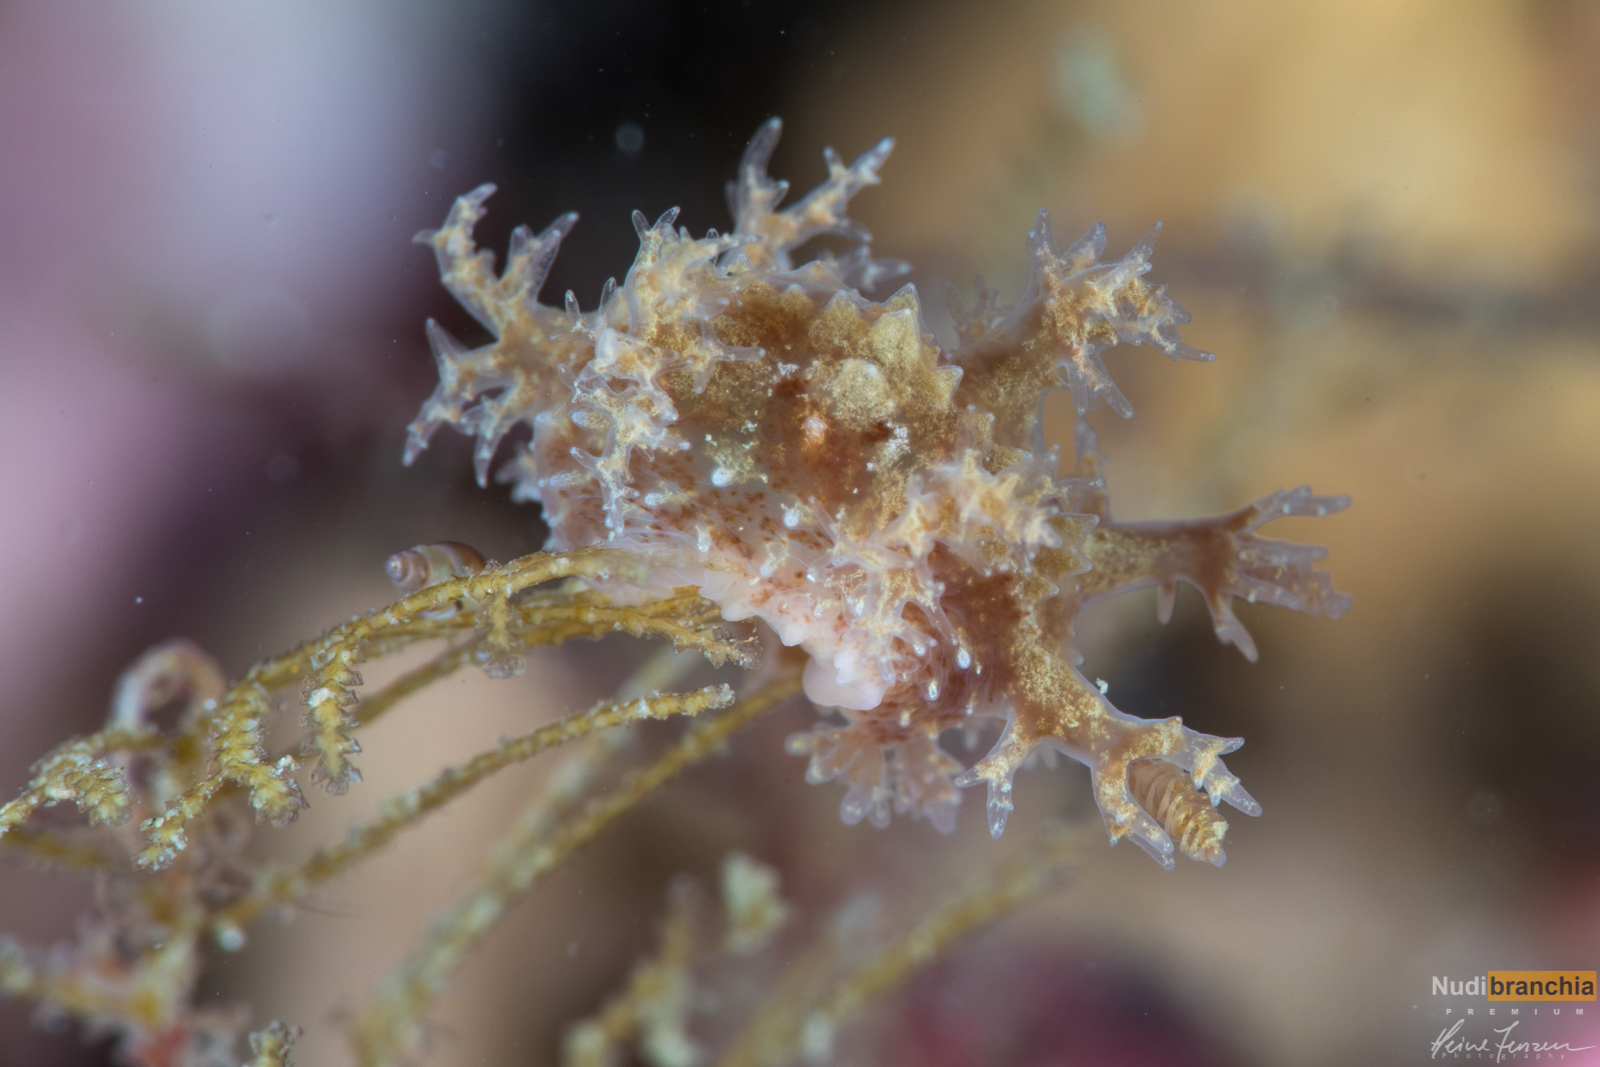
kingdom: Animalia
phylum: Mollusca
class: Gastropoda
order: Nudibranchia
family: Dendronotidae
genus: Dendronotus
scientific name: Dendronotus frondosus
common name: Bushy-backed nudibranch
